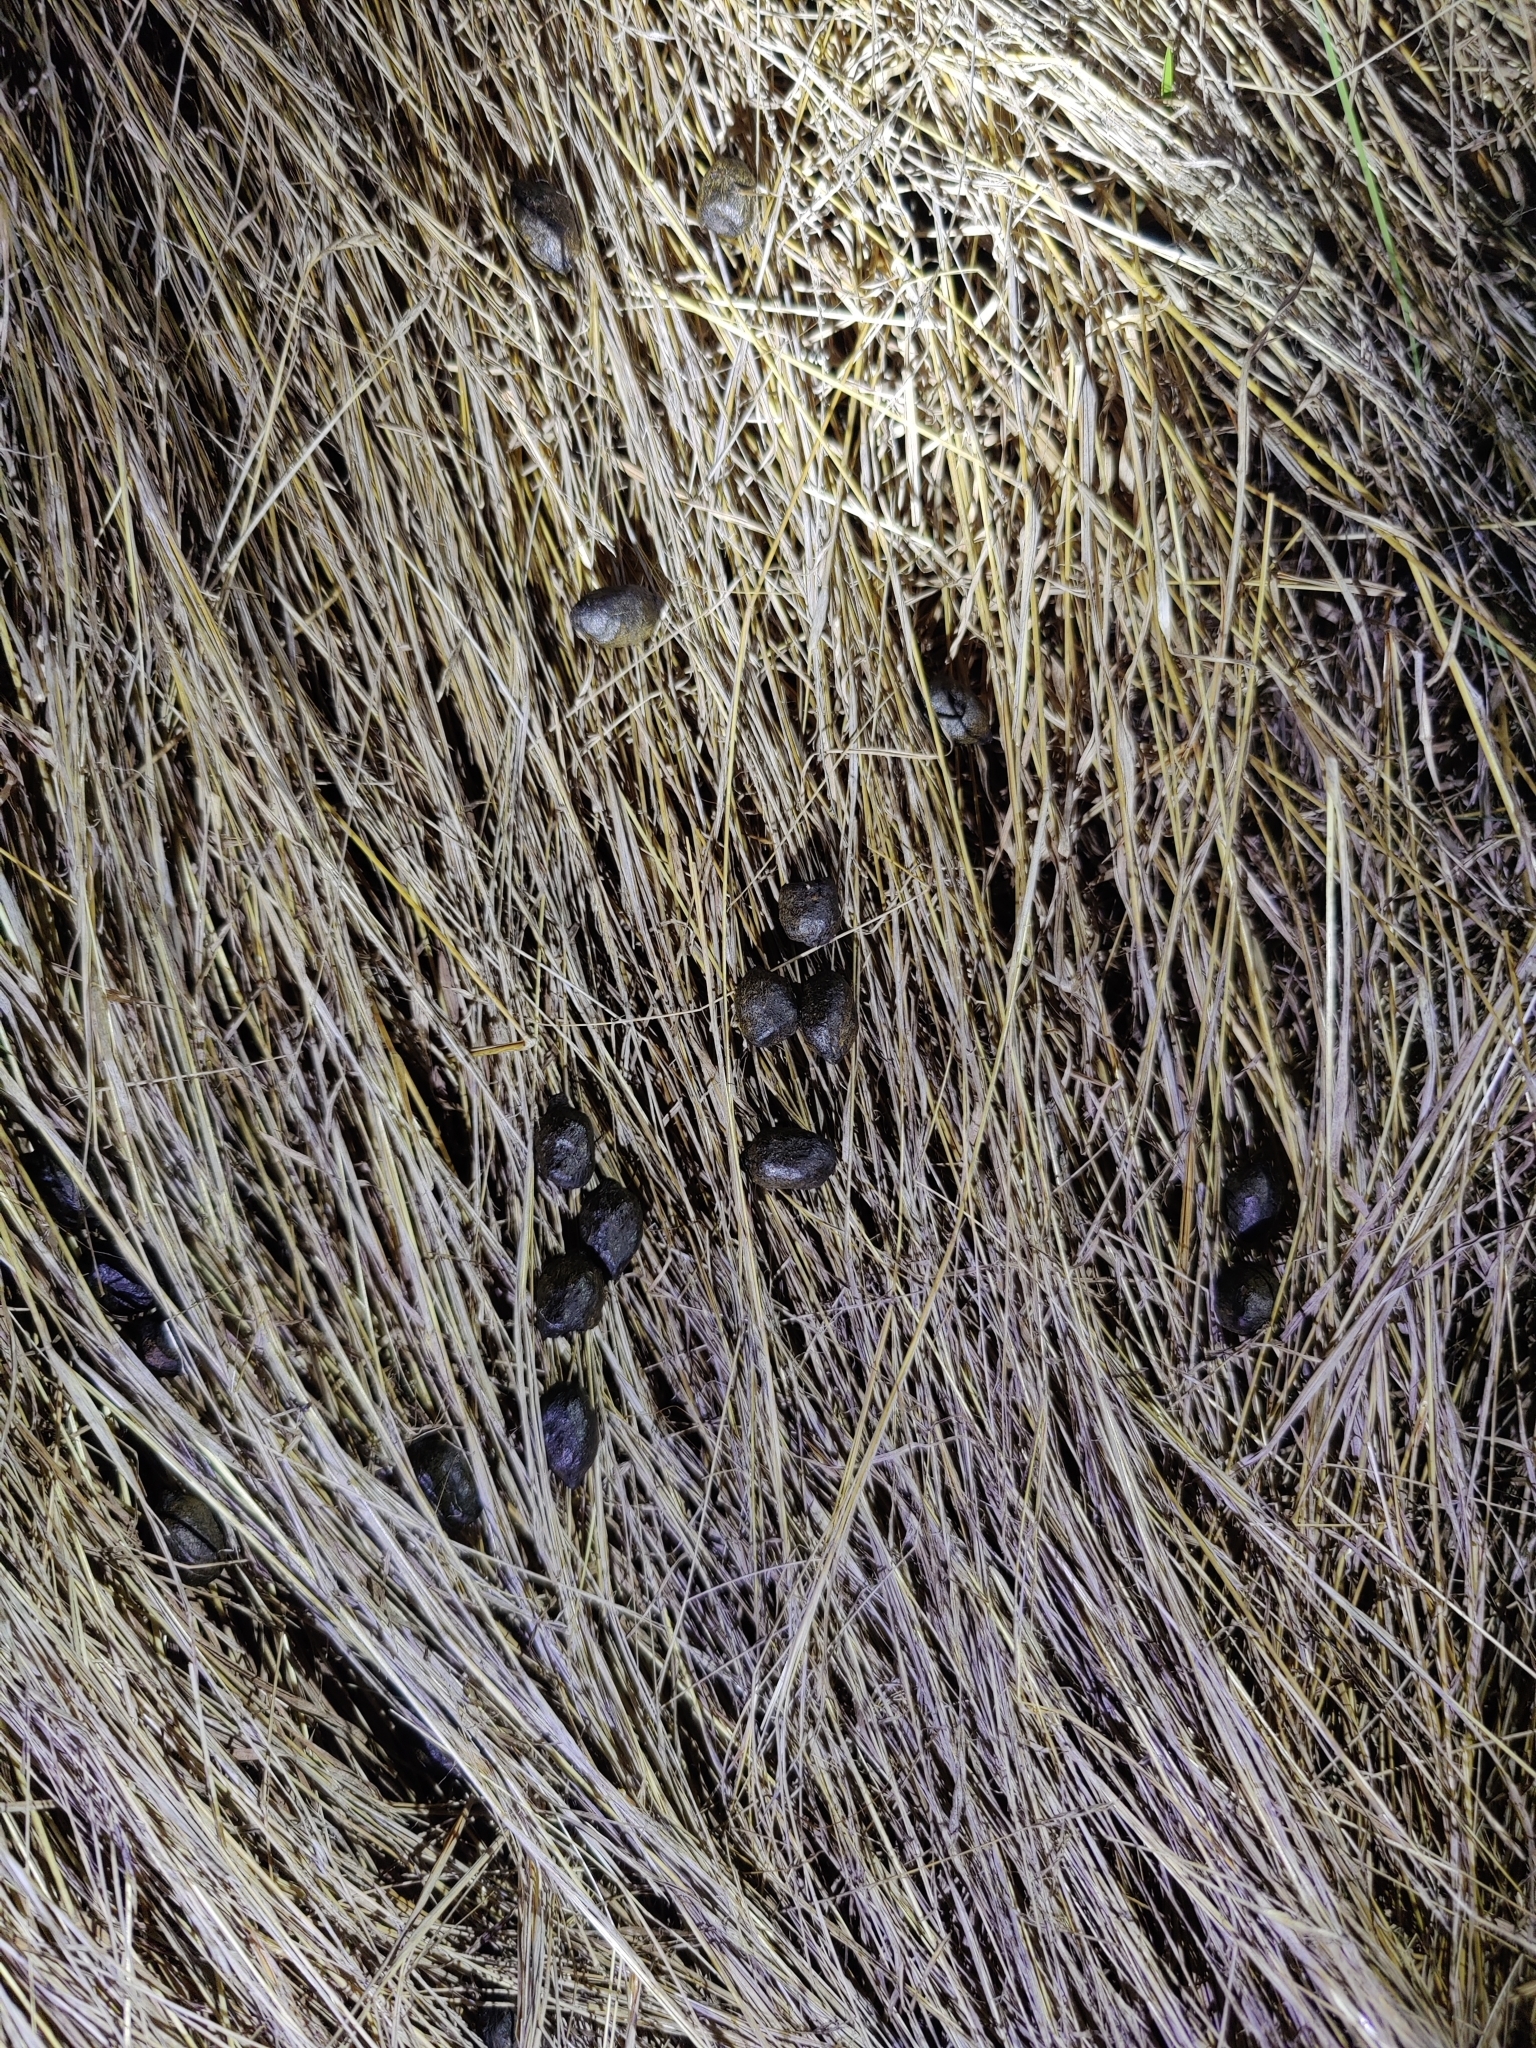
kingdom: Animalia
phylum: Chordata
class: Mammalia
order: Artiodactyla
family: Cervidae
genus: Rusa
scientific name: Rusa unicolor
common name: Sambar
